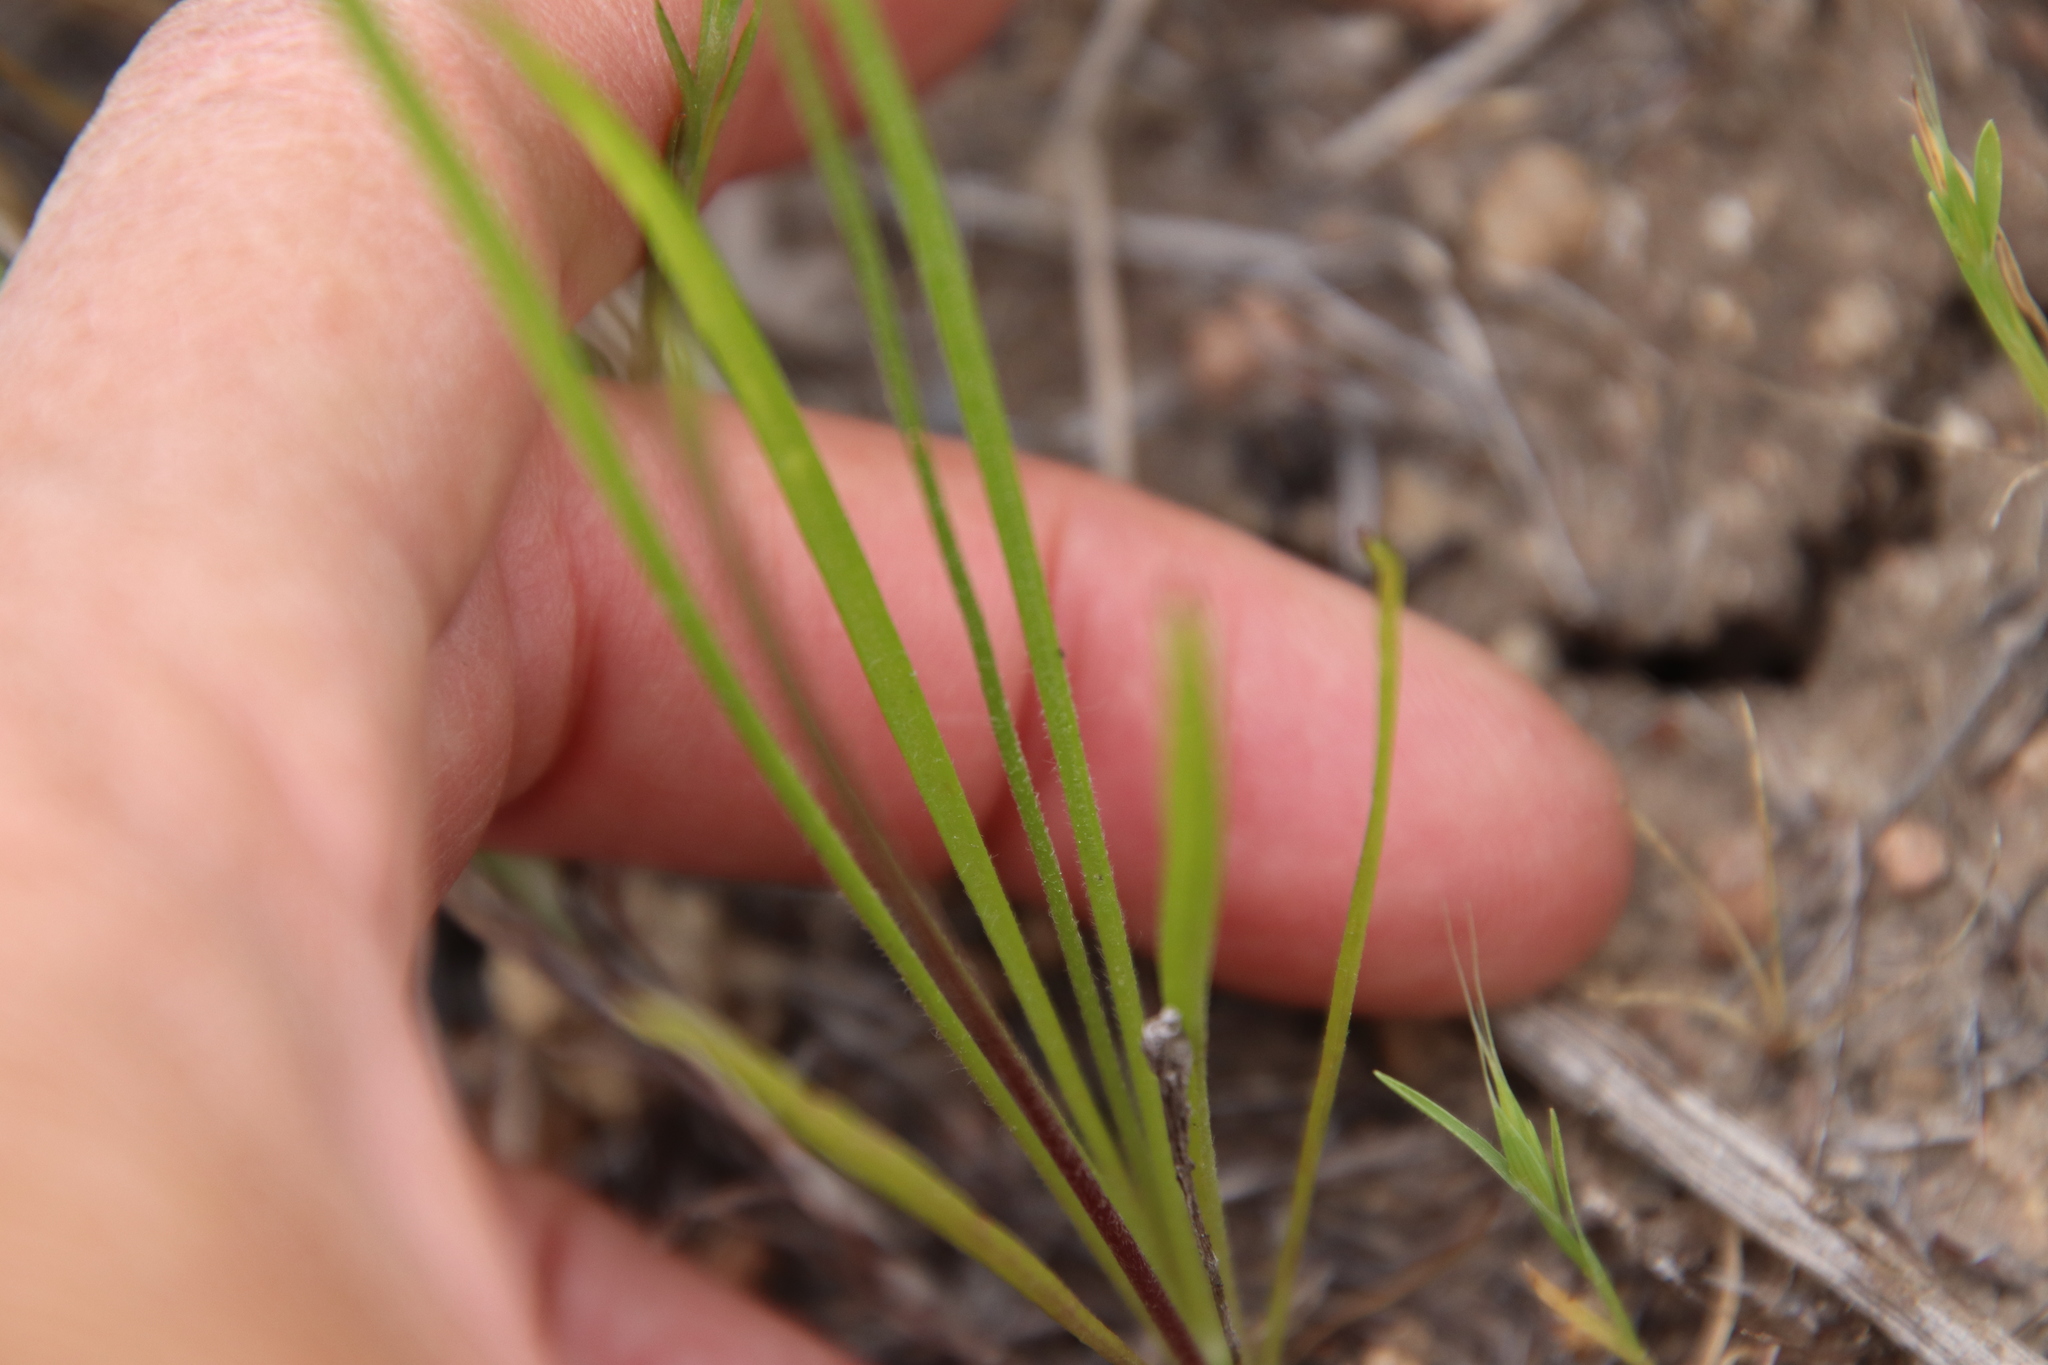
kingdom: Plantae
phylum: Tracheophyta
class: Magnoliopsida
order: Lamiales
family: Plantaginaceae
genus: Plantago
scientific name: Plantago erecta
